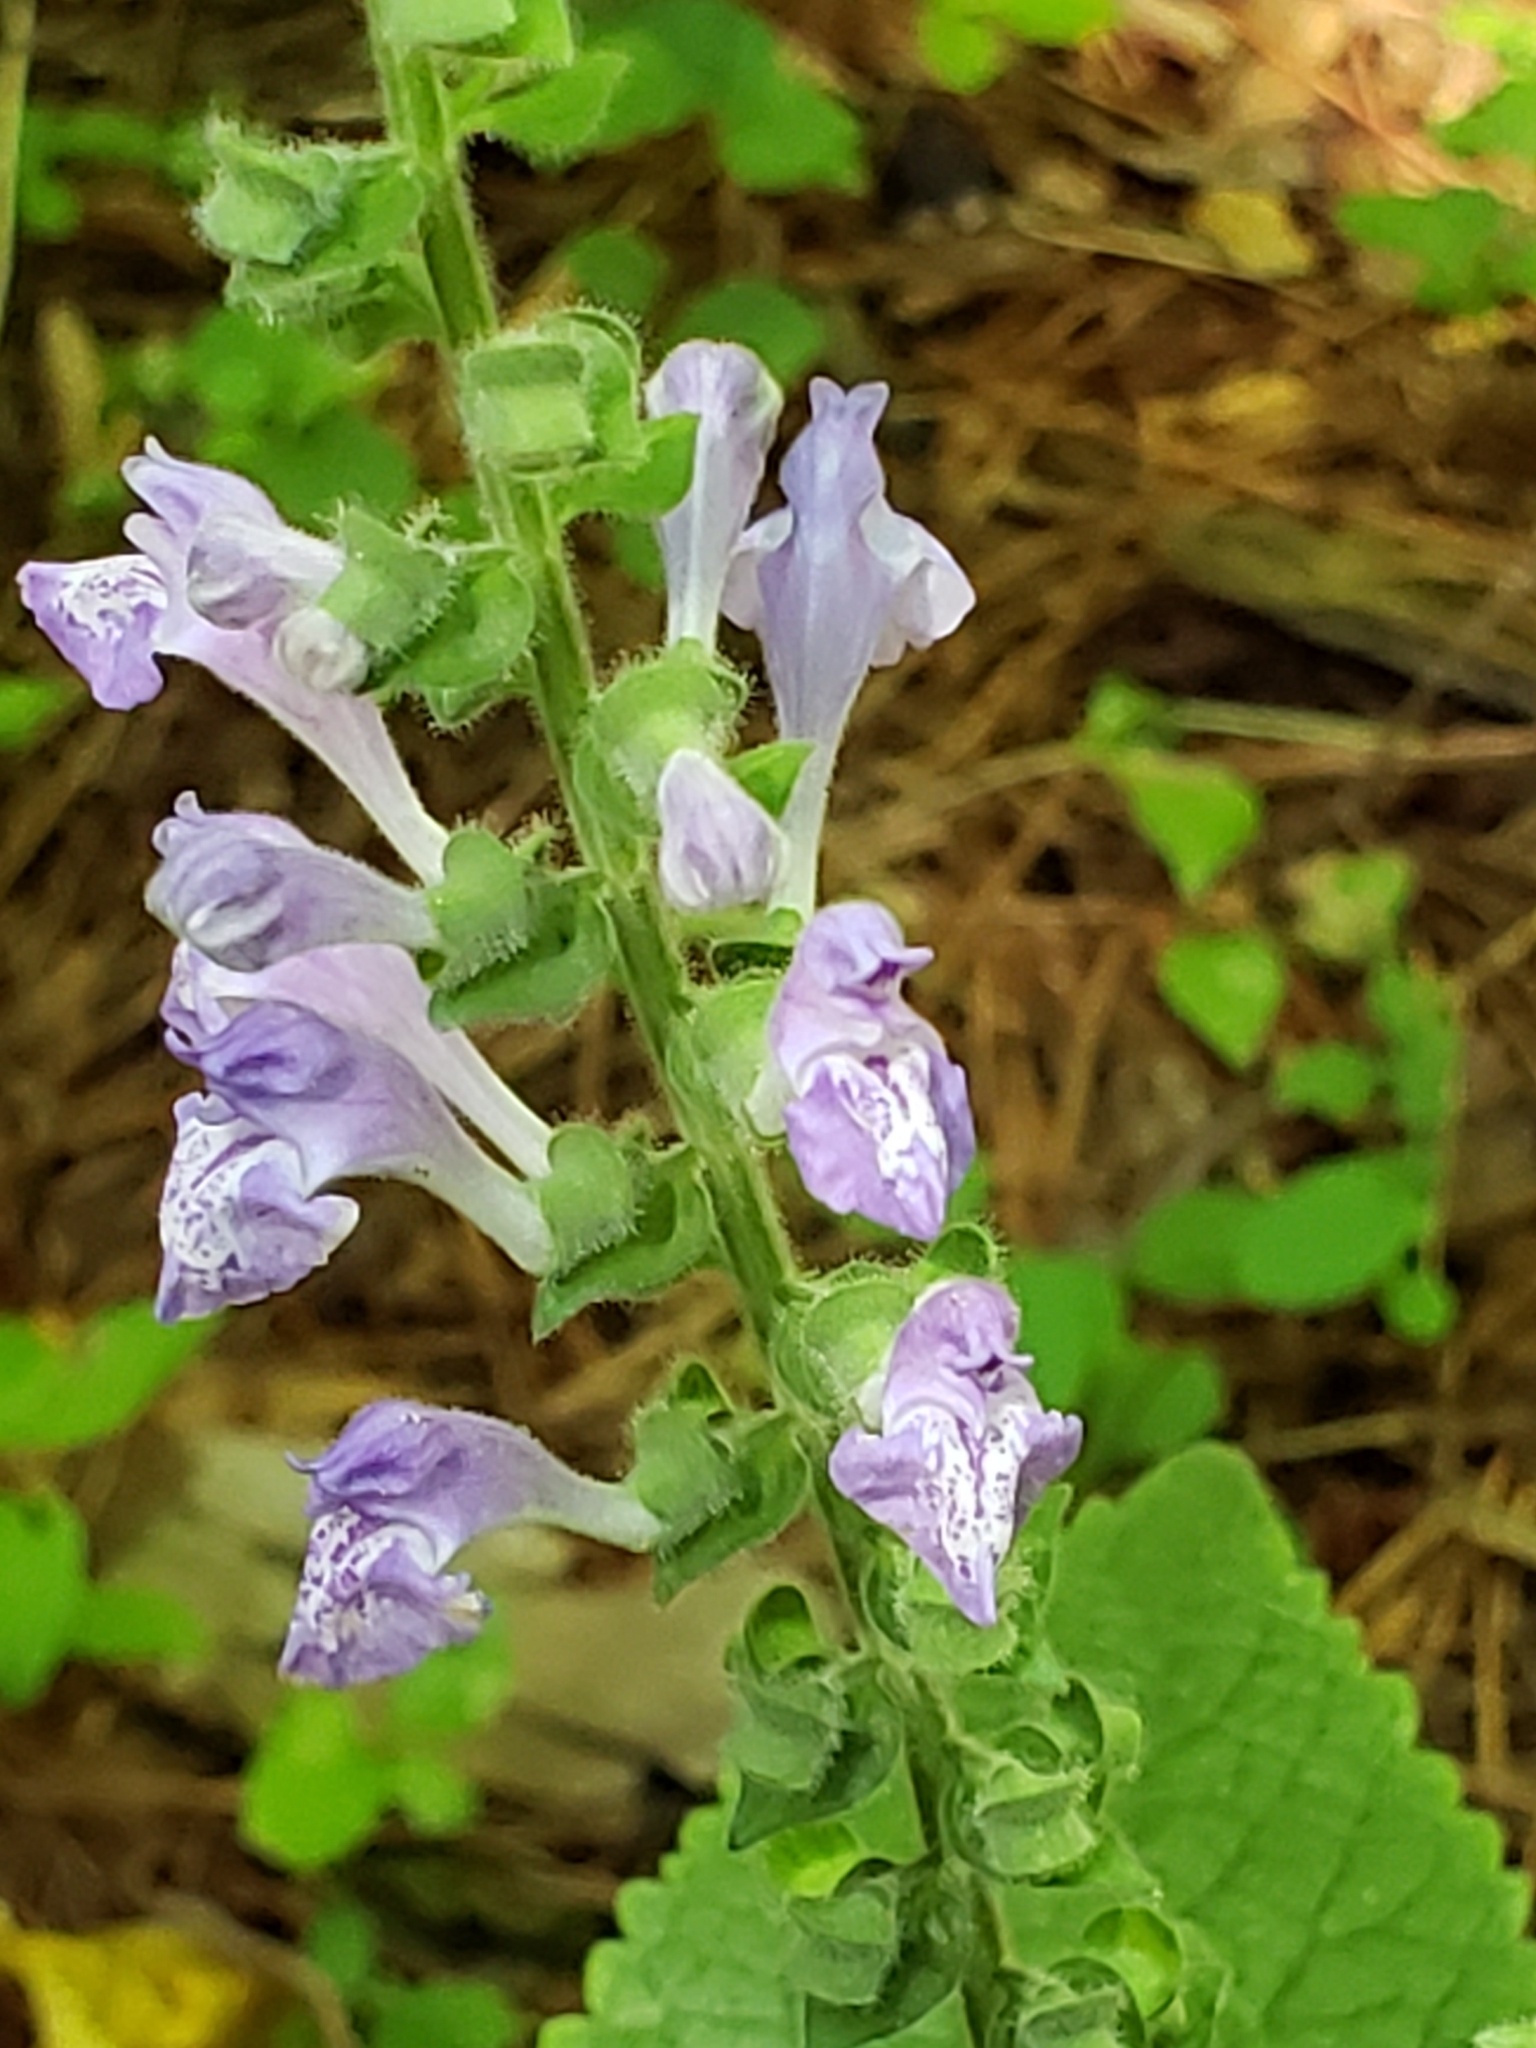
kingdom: Plantae
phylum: Tracheophyta
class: Magnoliopsida
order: Lamiales
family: Lamiaceae
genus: Scutellaria
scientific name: Scutellaria ovata
